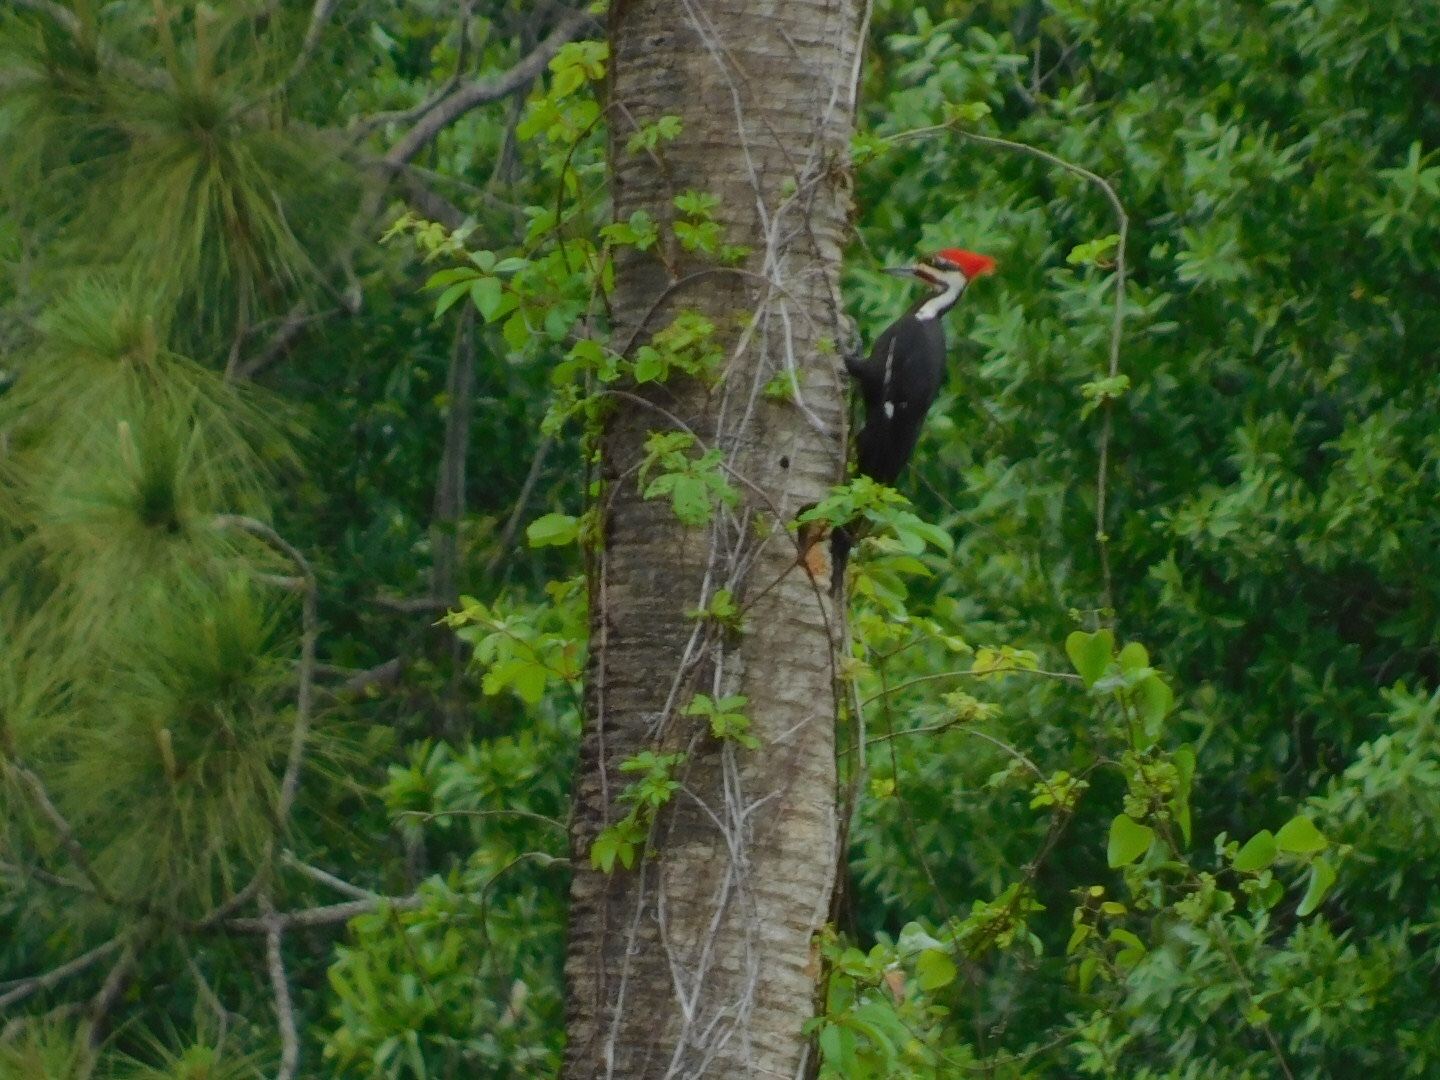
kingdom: Animalia
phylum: Chordata
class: Aves
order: Piciformes
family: Picidae
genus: Dryocopus
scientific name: Dryocopus pileatus
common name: Pileated woodpecker
